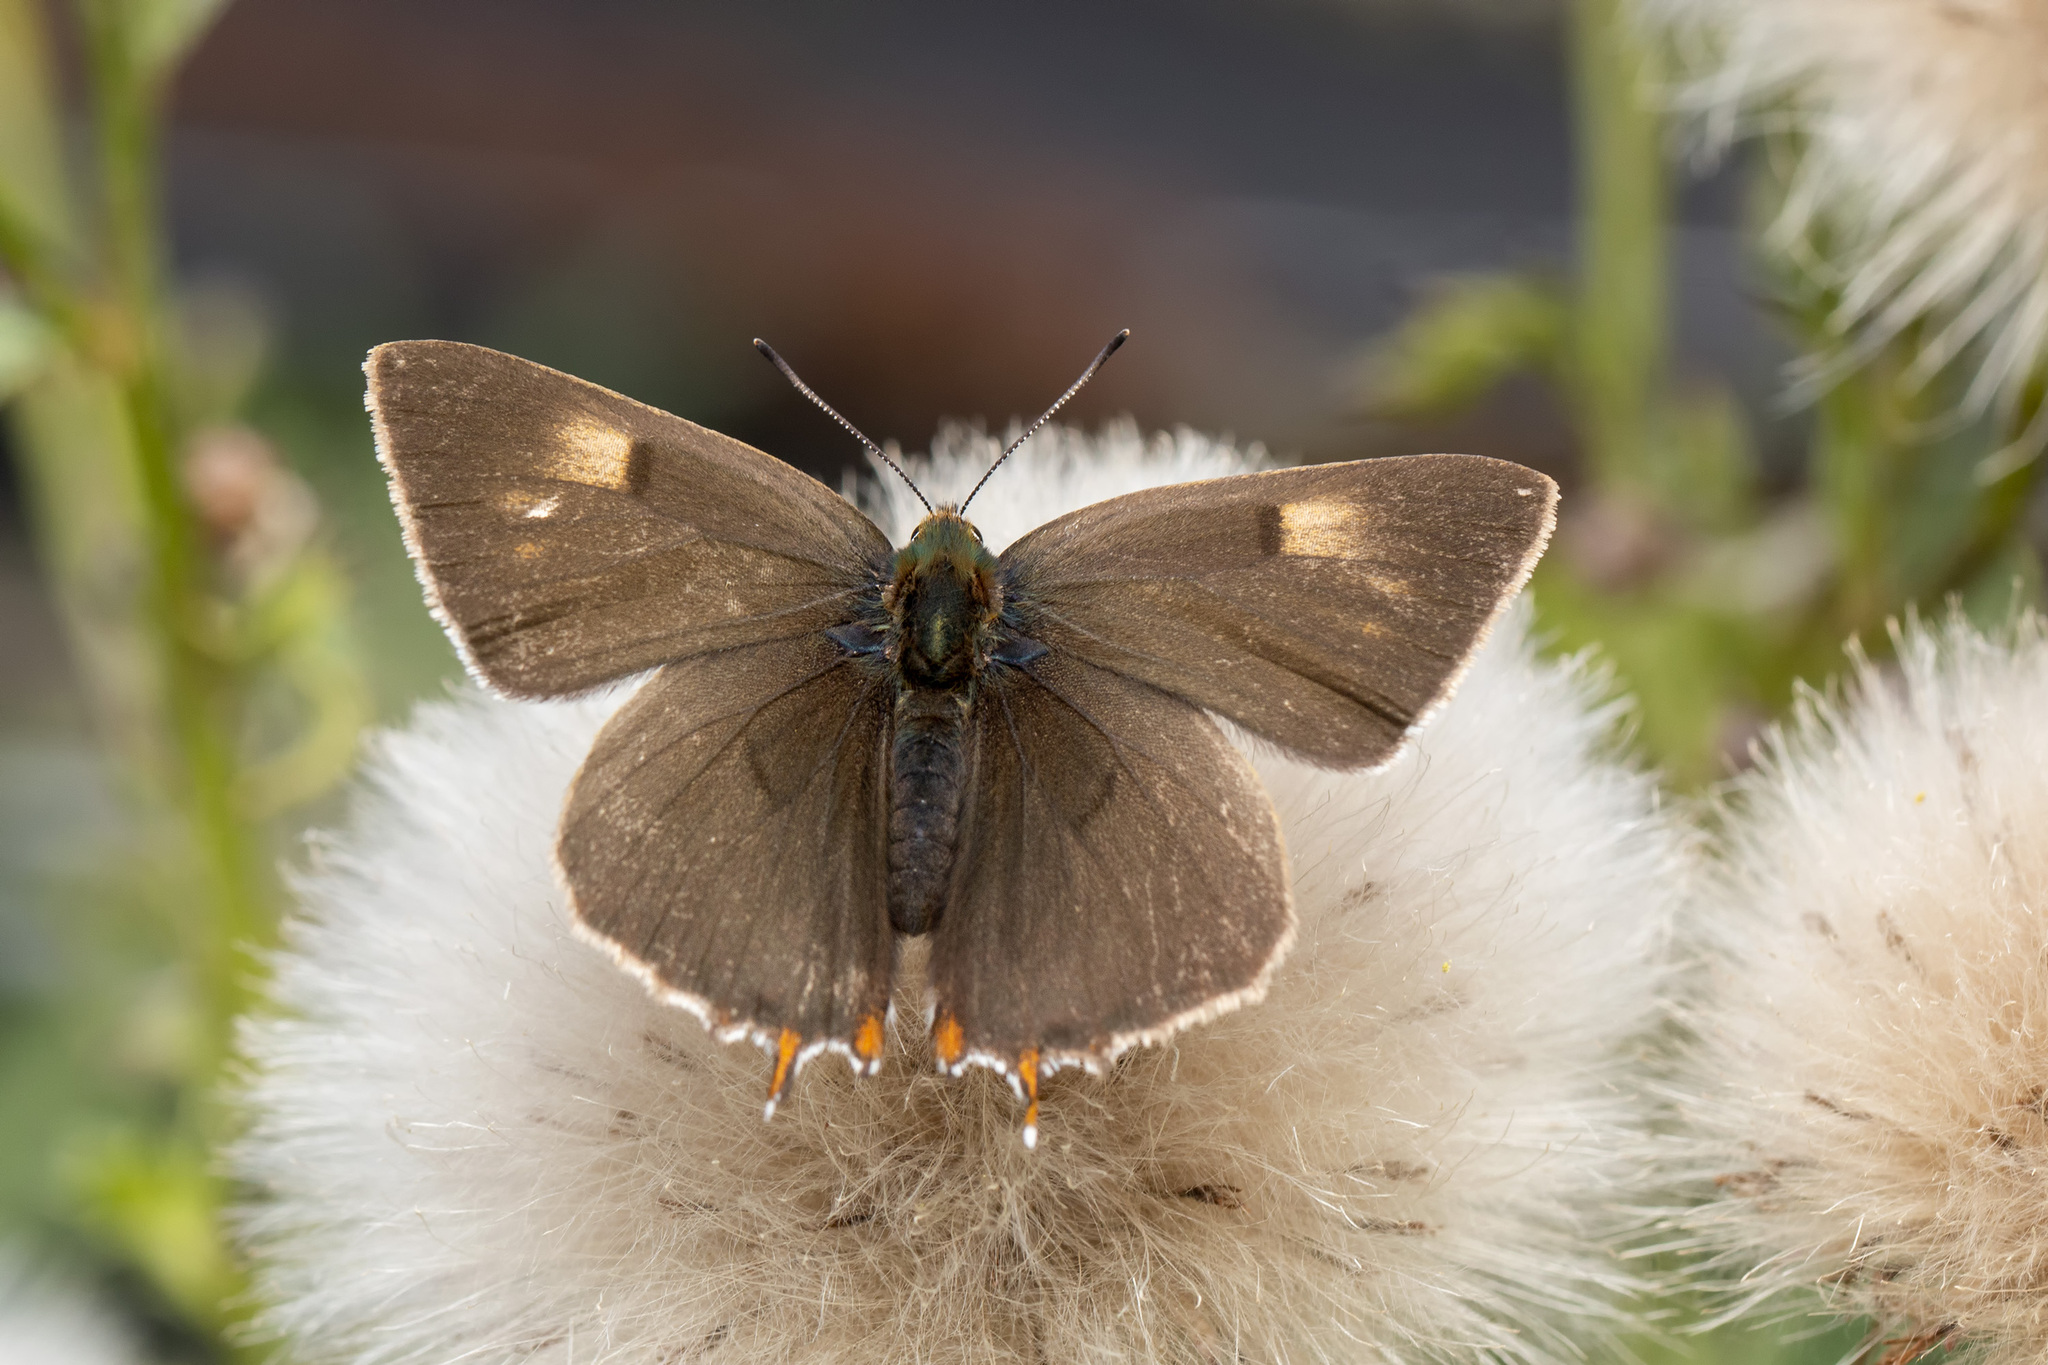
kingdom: Animalia
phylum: Arthropoda
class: Insecta
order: Lepidoptera
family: Lycaenidae
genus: Thecla
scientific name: Thecla betulae
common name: Brown hairstreak
